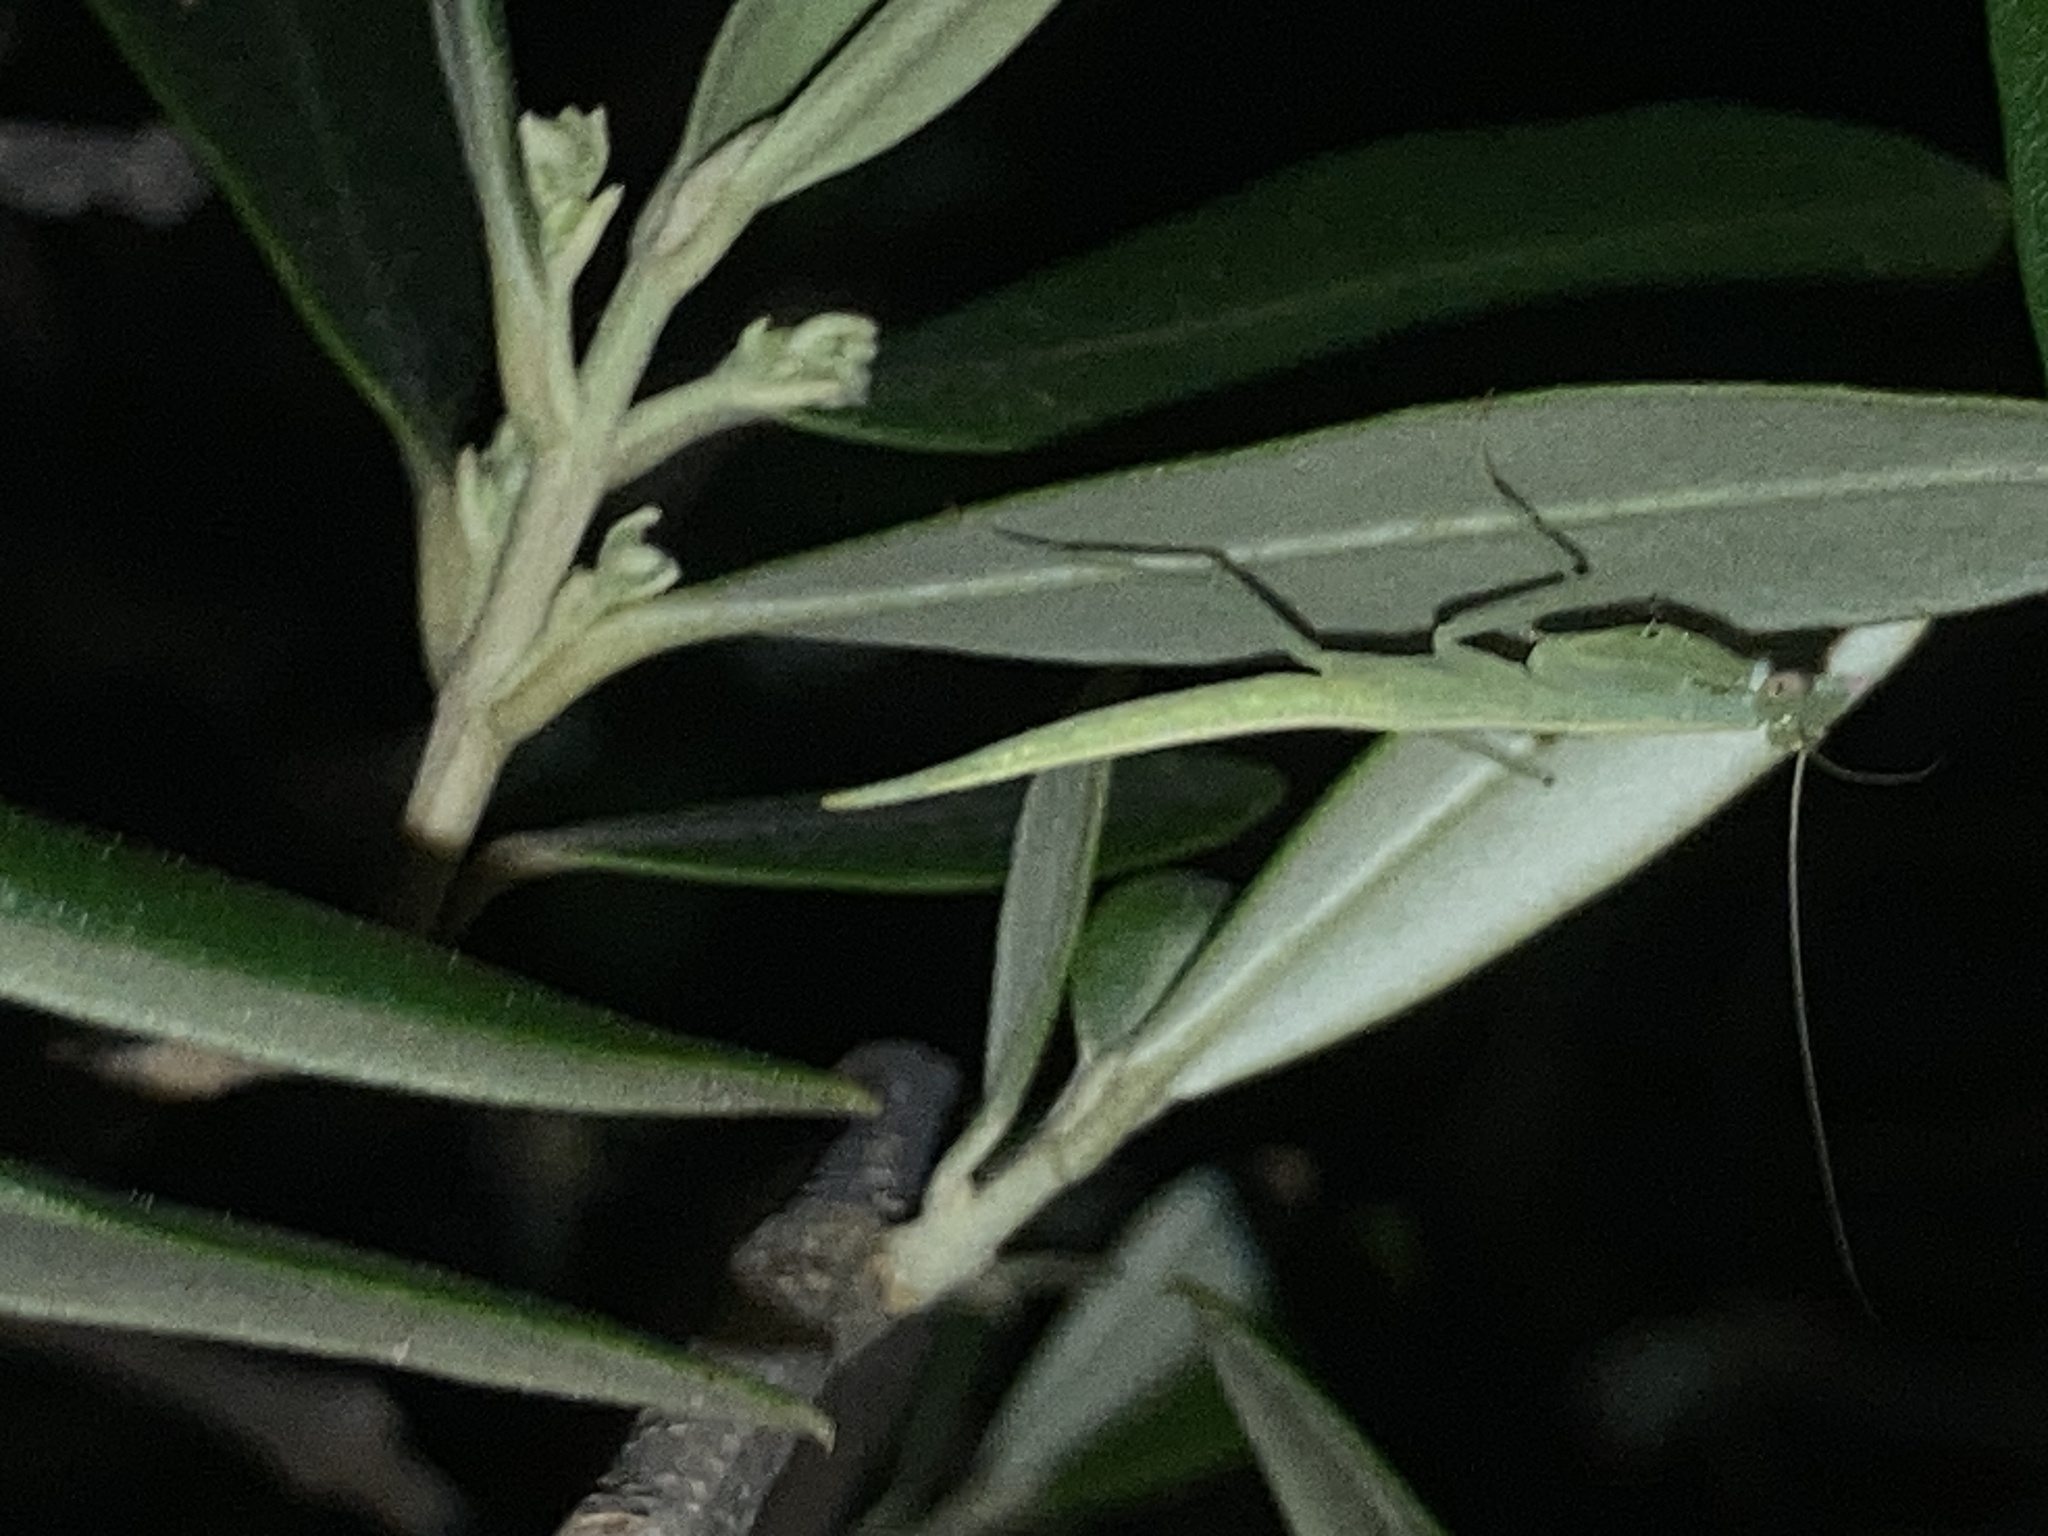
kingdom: Animalia
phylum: Arthropoda
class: Insecta
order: Mantodea
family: Nanomantidae
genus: Kongobatha
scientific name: Kongobatha diademata
